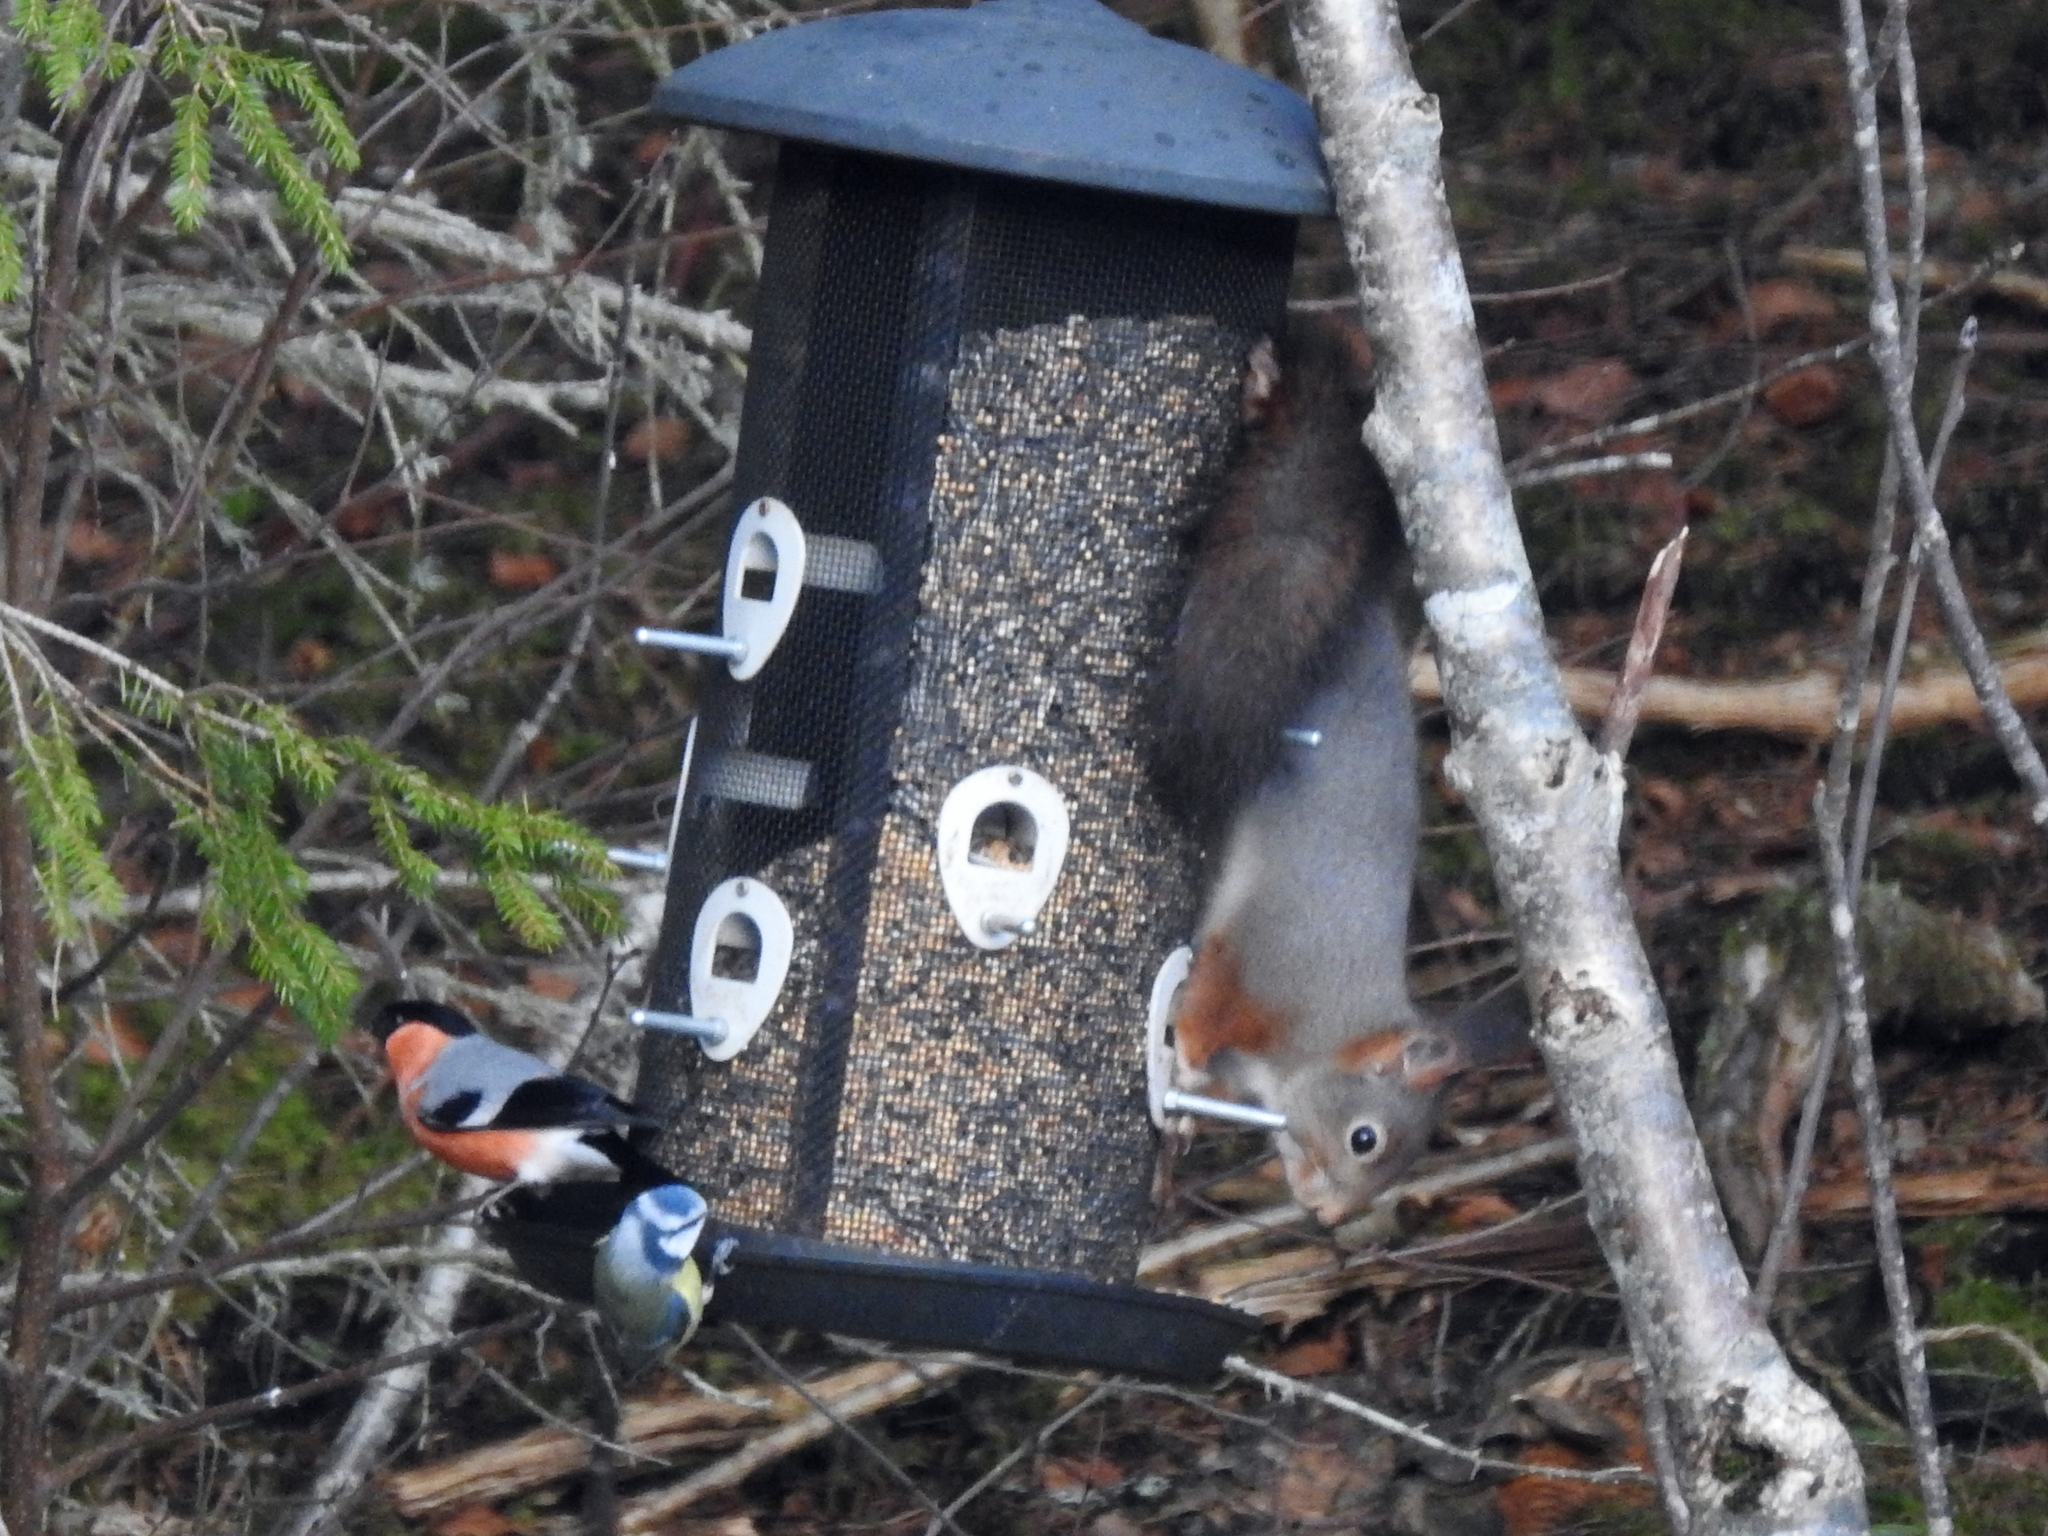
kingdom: Animalia
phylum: Chordata
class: Aves
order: Passeriformes
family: Paridae
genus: Cyanistes
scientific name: Cyanistes caeruleus
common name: Eurasian blue tit
